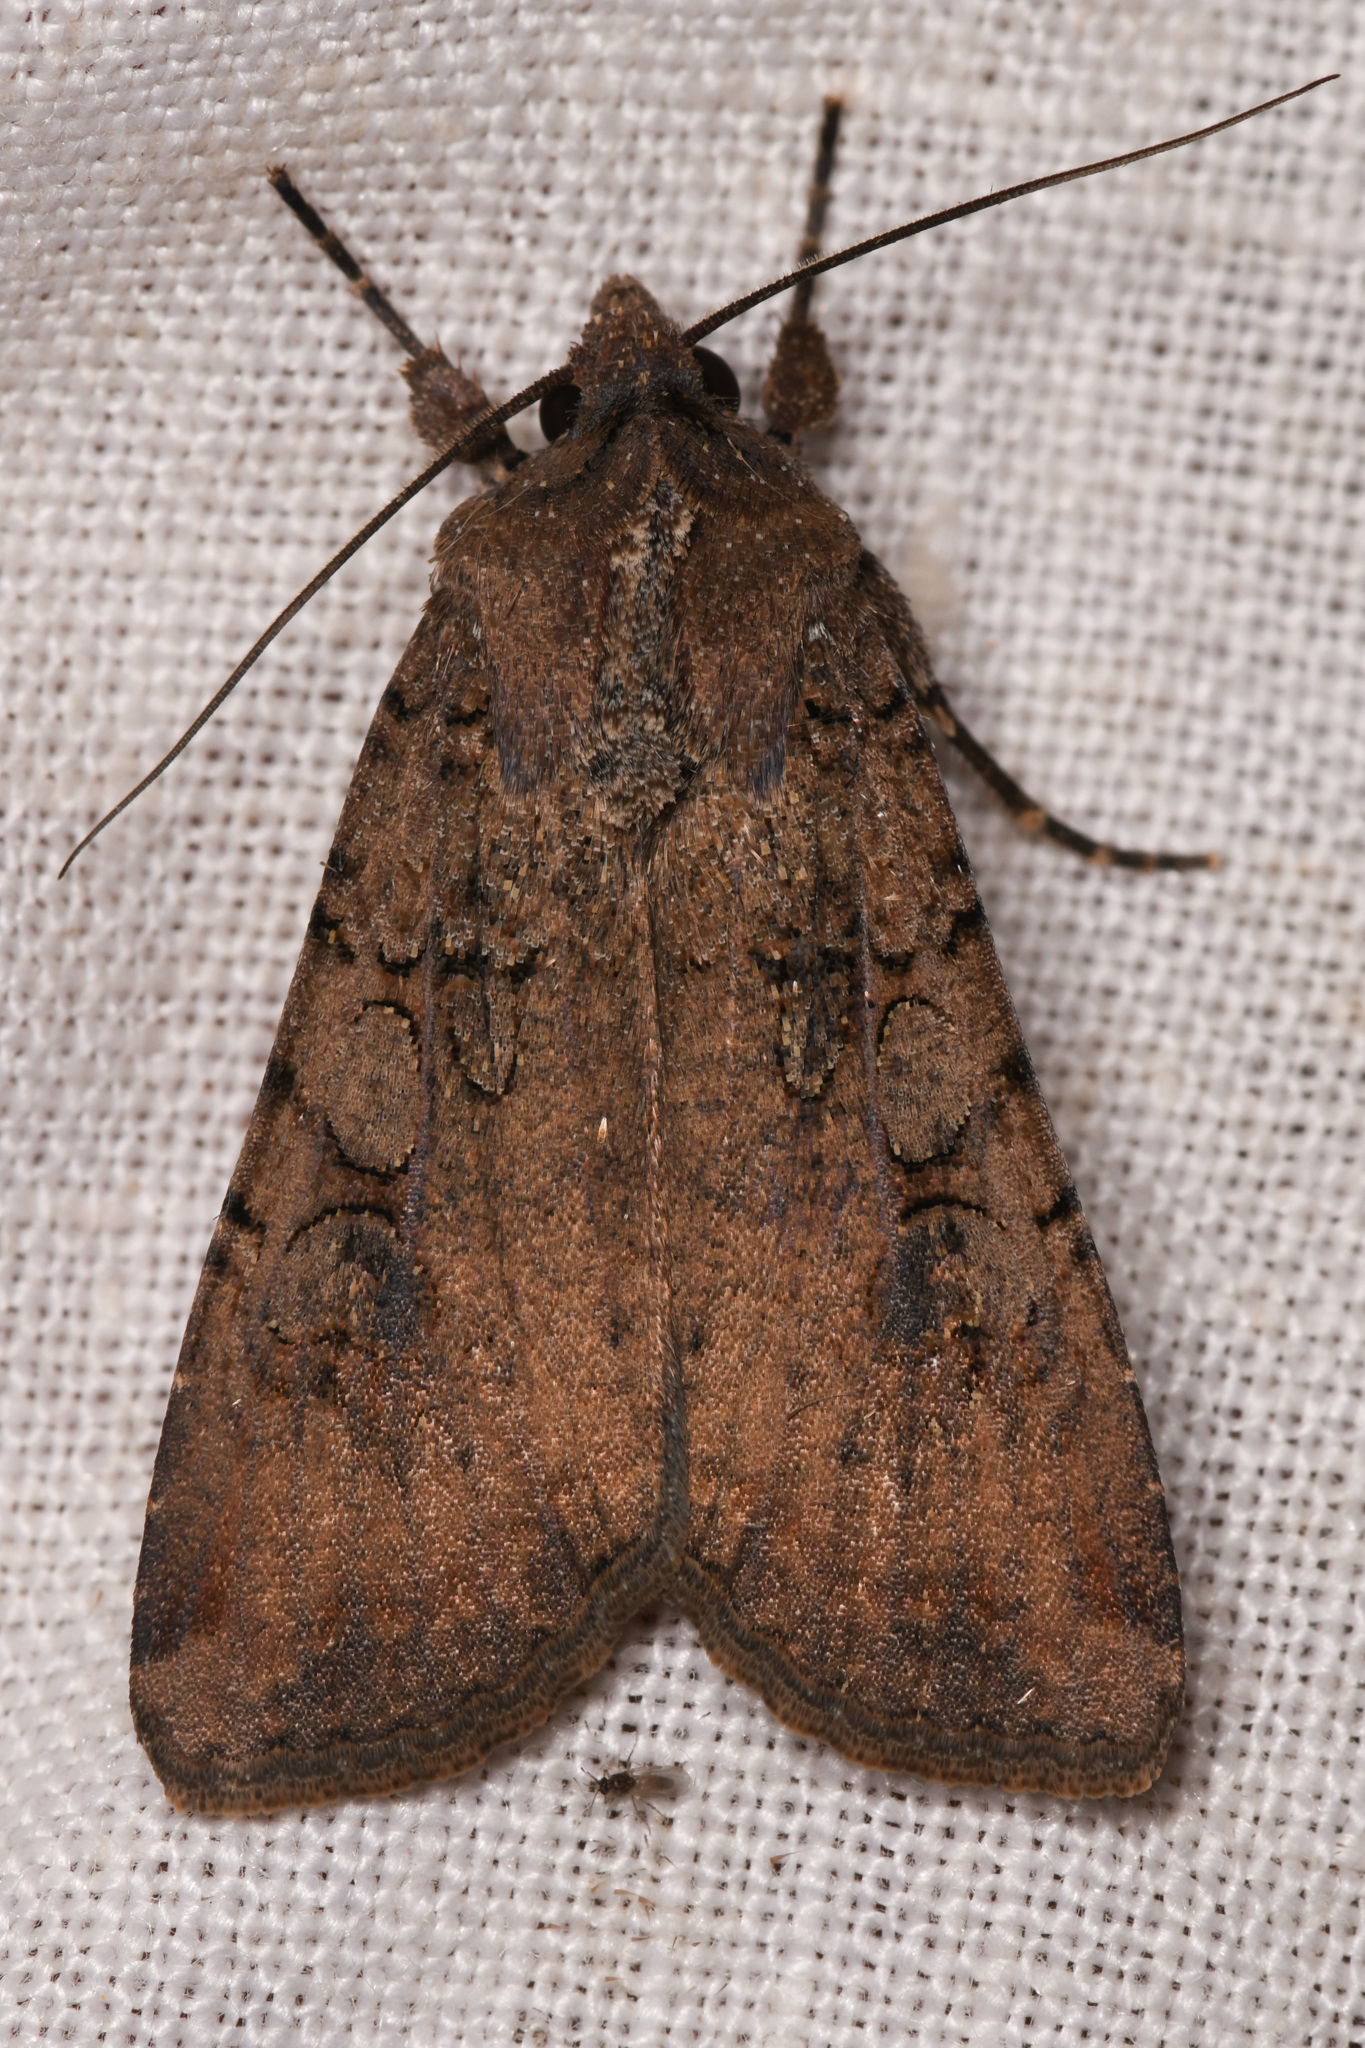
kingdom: Animalia
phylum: Arthropoda
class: Insecta
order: Lepidoptera
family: Noctuidae
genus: Peridroma
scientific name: Peridroma saucia
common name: Pearly underwing
